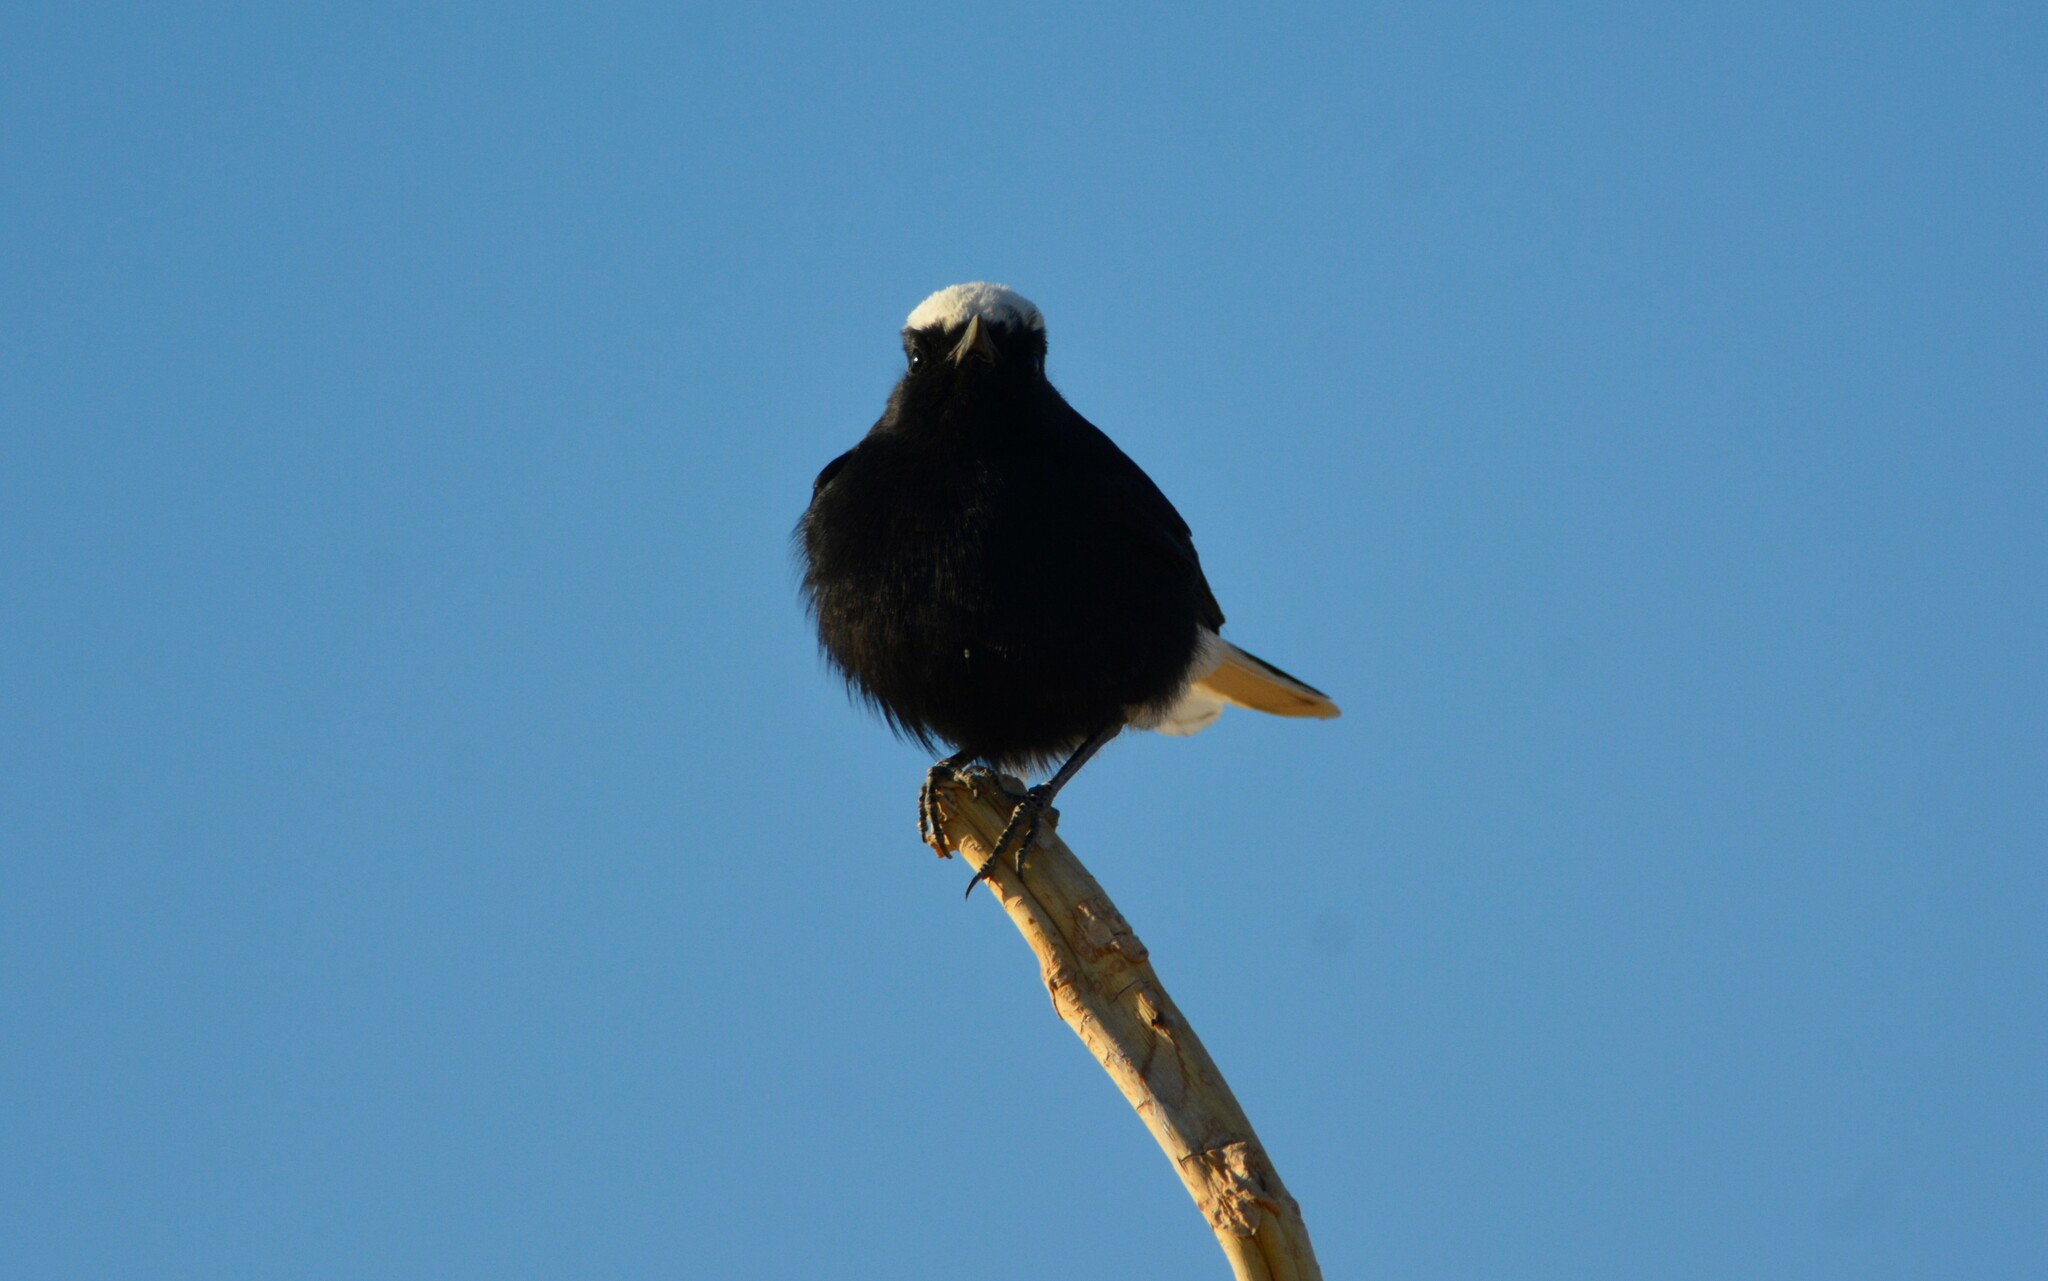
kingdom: Animalia
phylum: Chordata
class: Aves
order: Passeriformes
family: Muscicapidae
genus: Oenanthe
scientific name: Oenanthe leucopyga
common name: White-crowned wheatear
